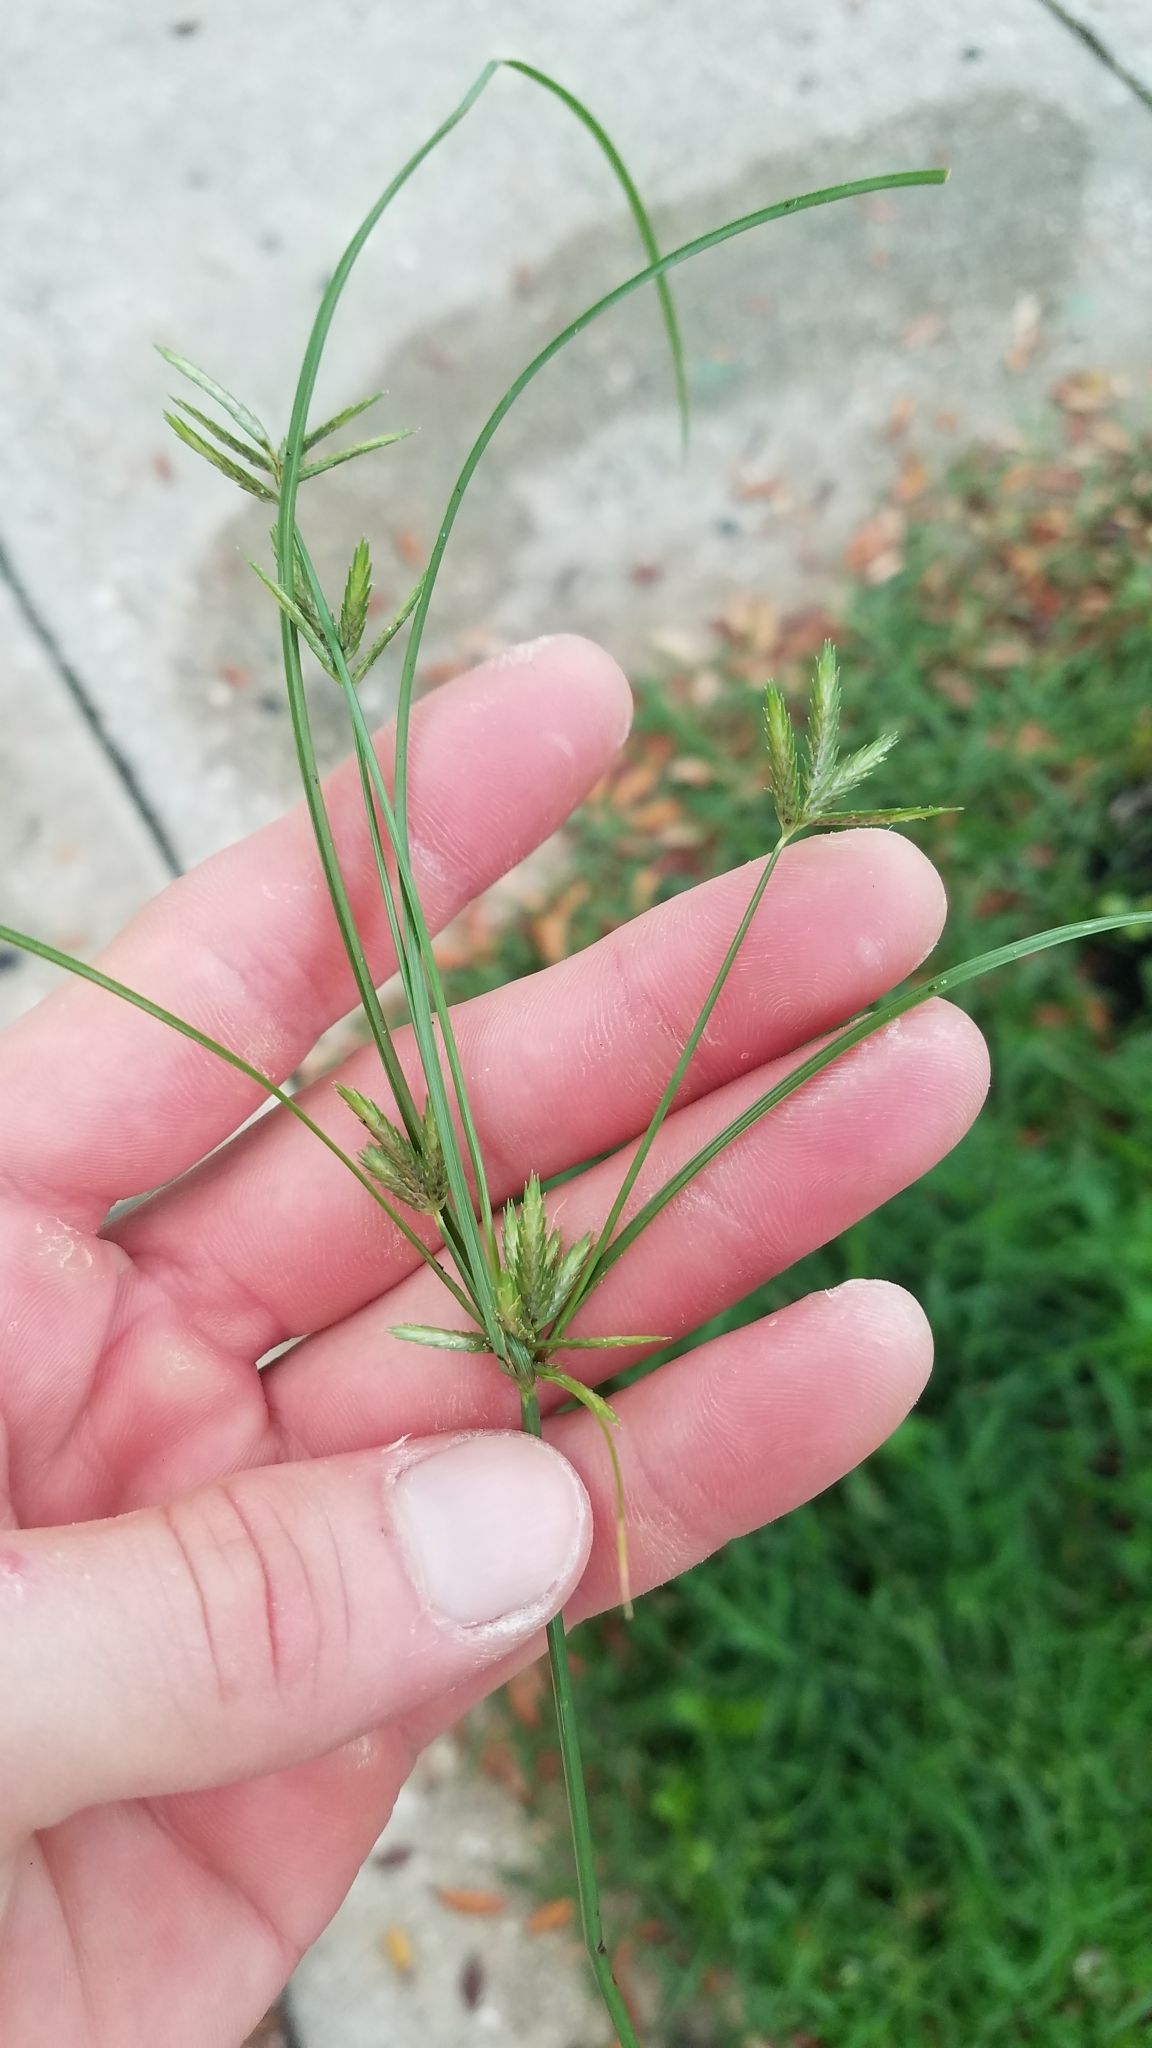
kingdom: Plantae
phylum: Tracheophyta
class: Liliopsida
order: Poales
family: Cyperaceae
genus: Cyperus
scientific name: Cyperus compressus
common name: Poorland flatsedge
